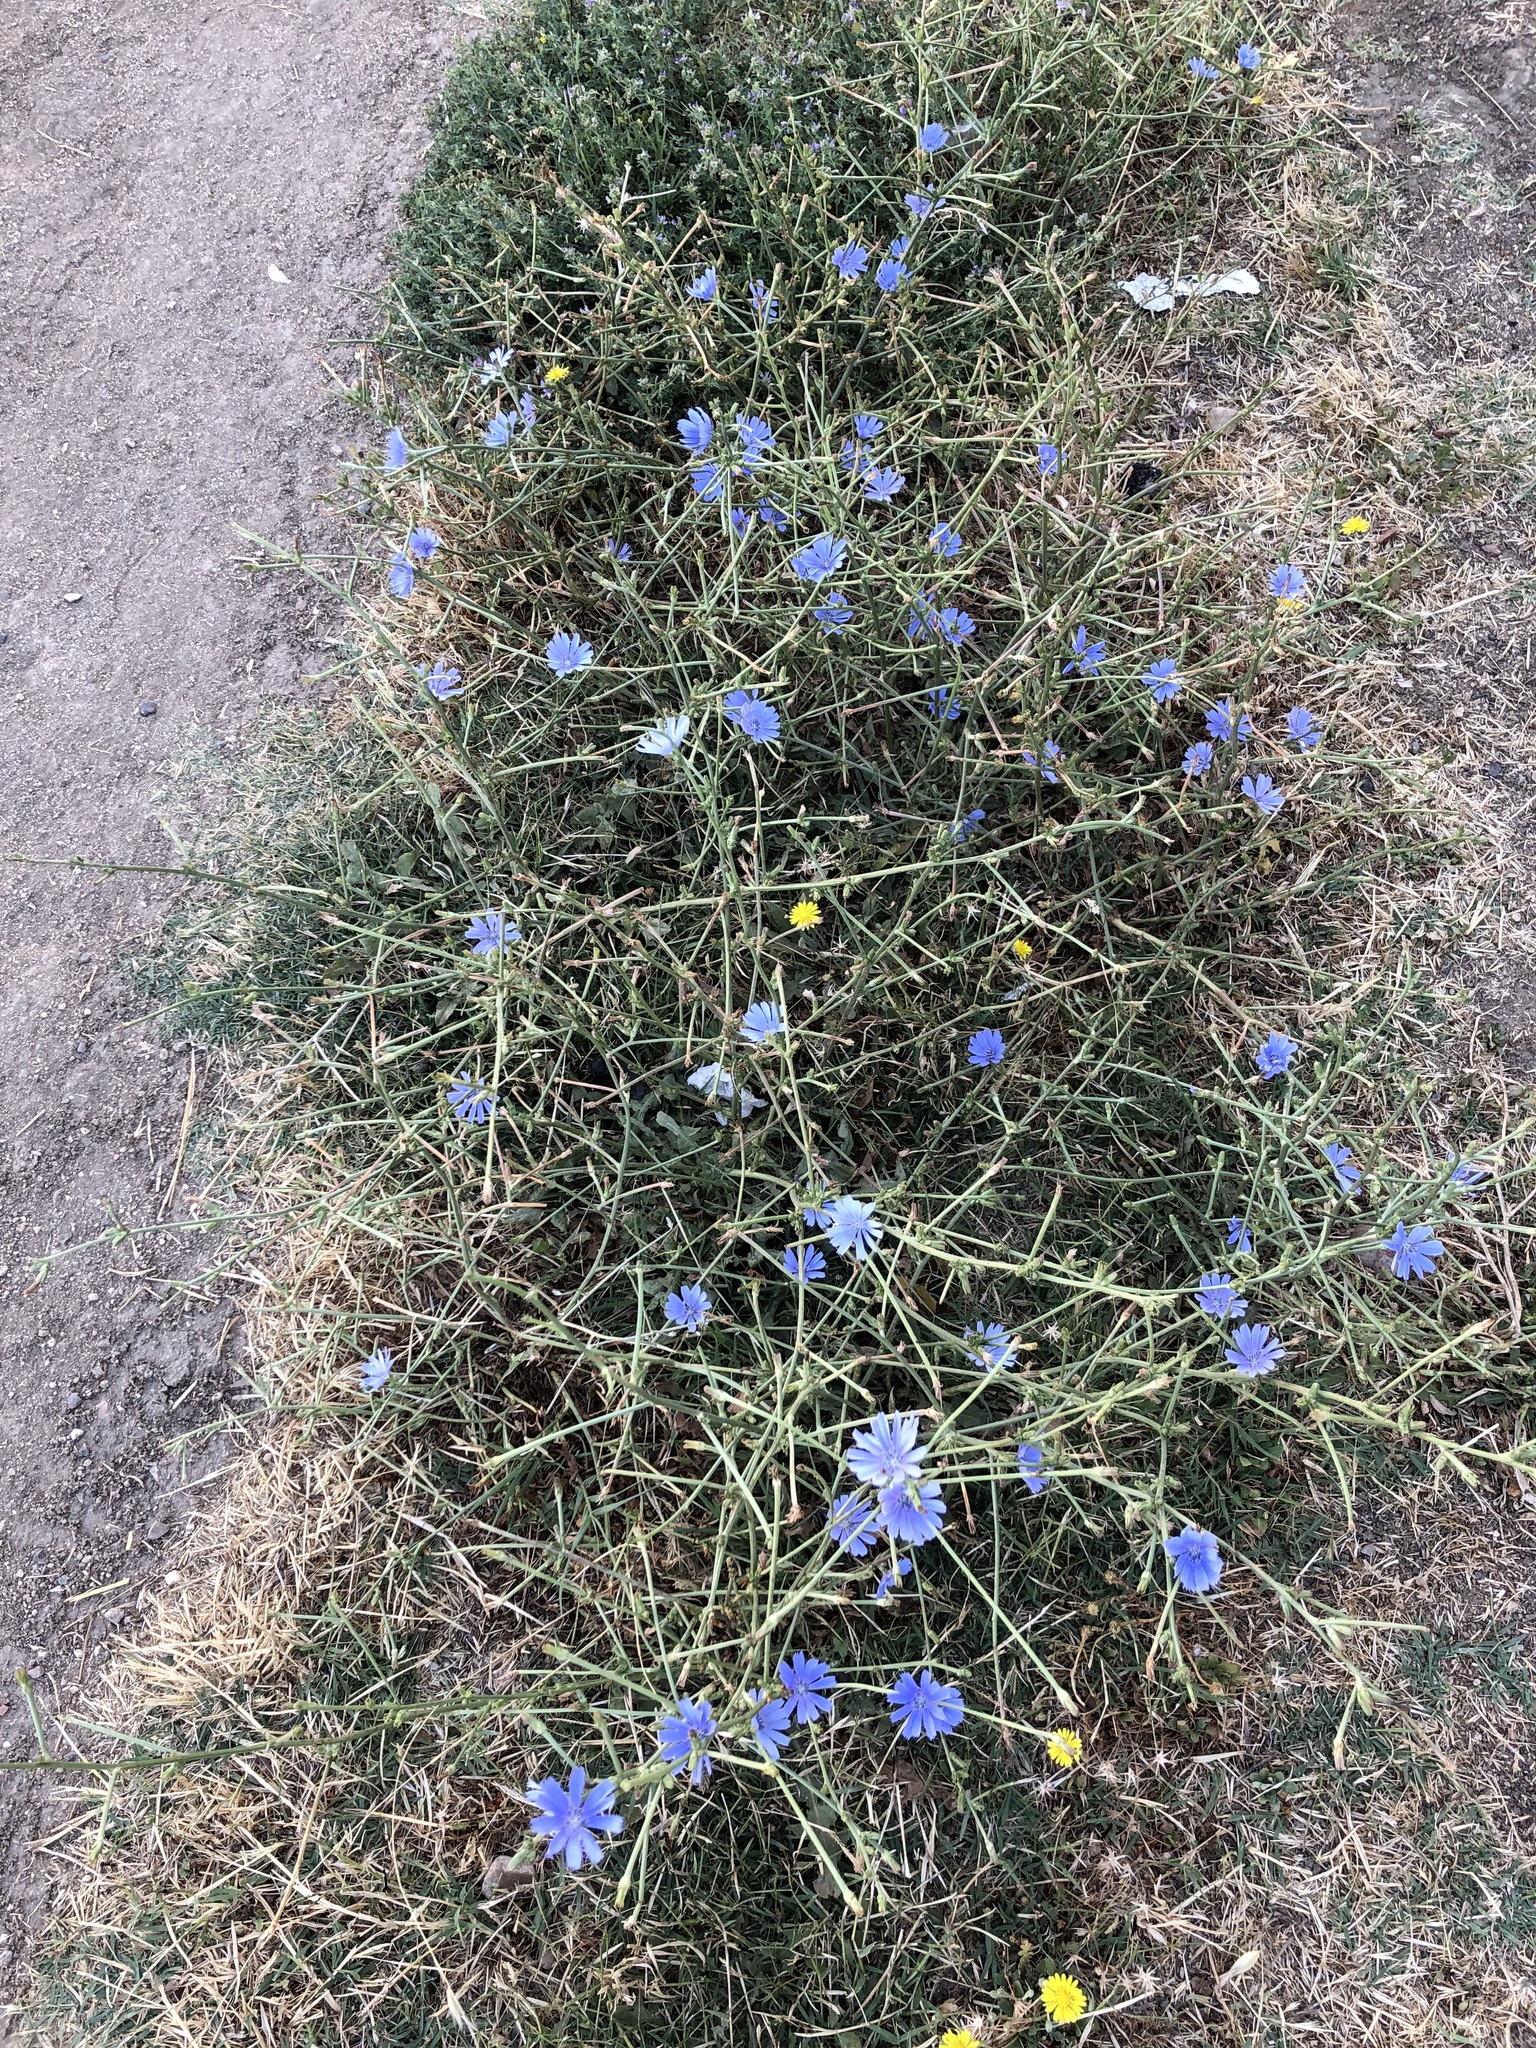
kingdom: Plantae
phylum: Tracheophyta
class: Magnoliopsida
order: Asterales
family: Asteraceae
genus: Cichorium
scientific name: Cichorium intybus
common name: Chicory
